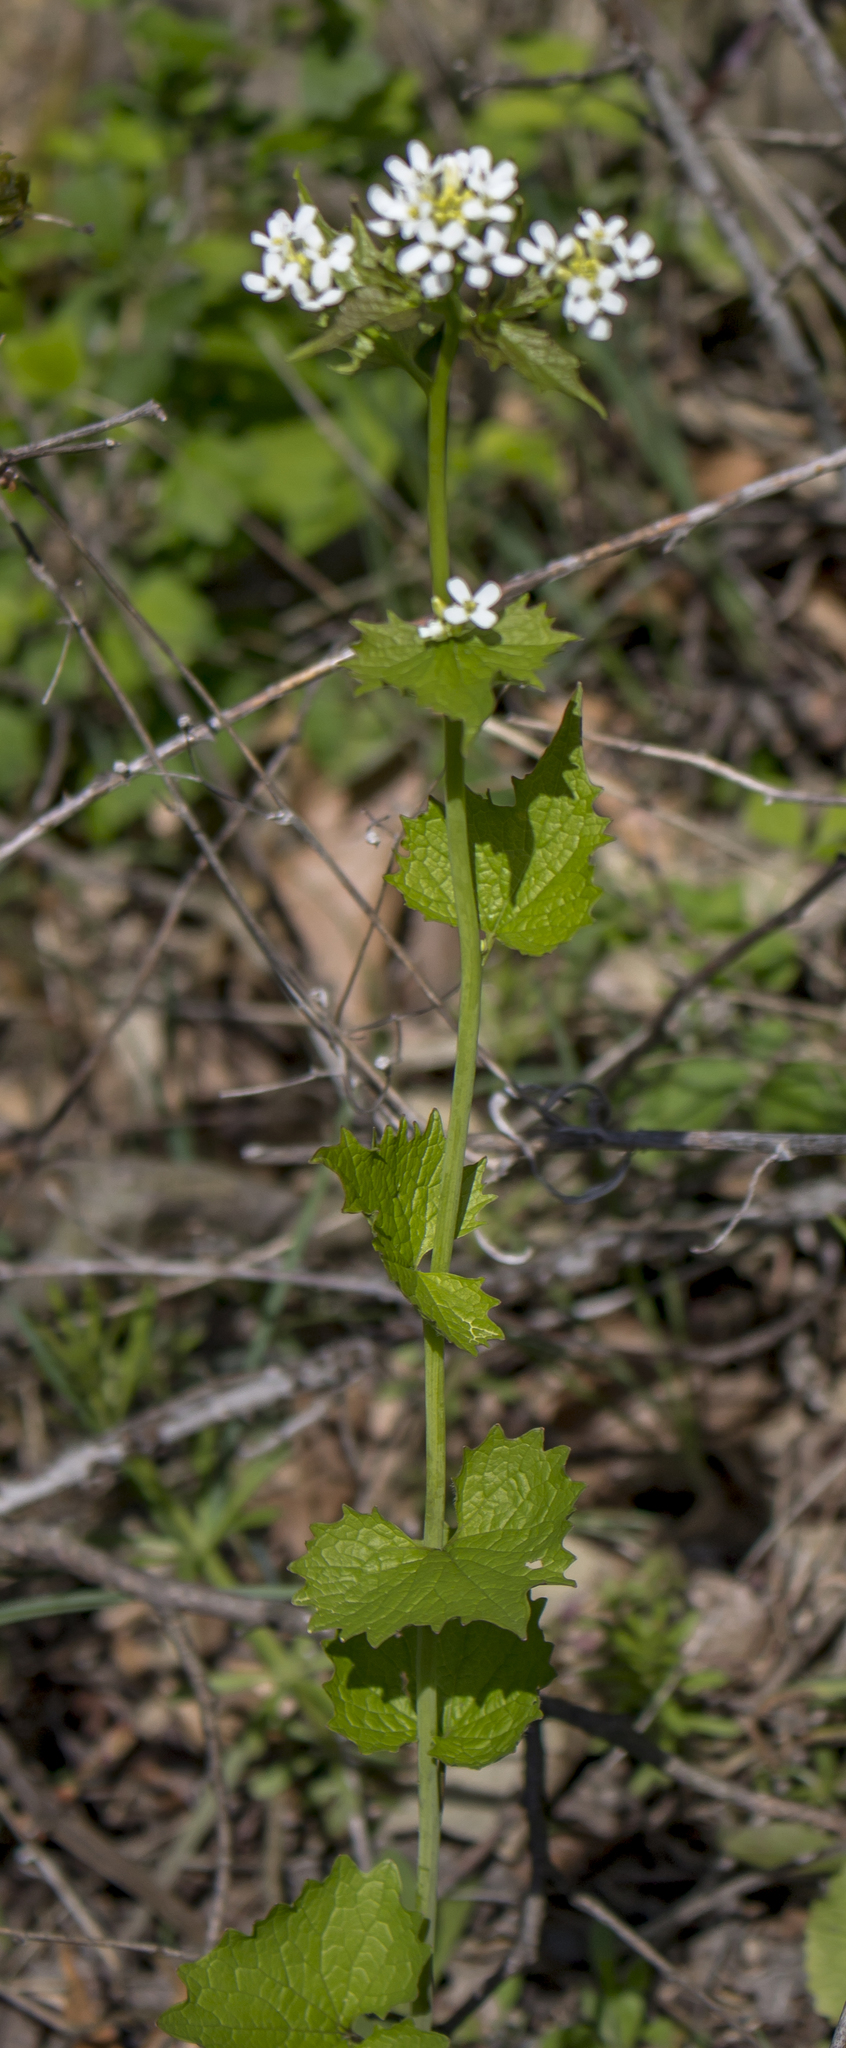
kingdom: Plantae
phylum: Tracheophyta
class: Magnoliopsida
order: Brassicales
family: Brassicaceae
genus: Alliaria
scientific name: Alliaria petiolata
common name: Garlic mustard
